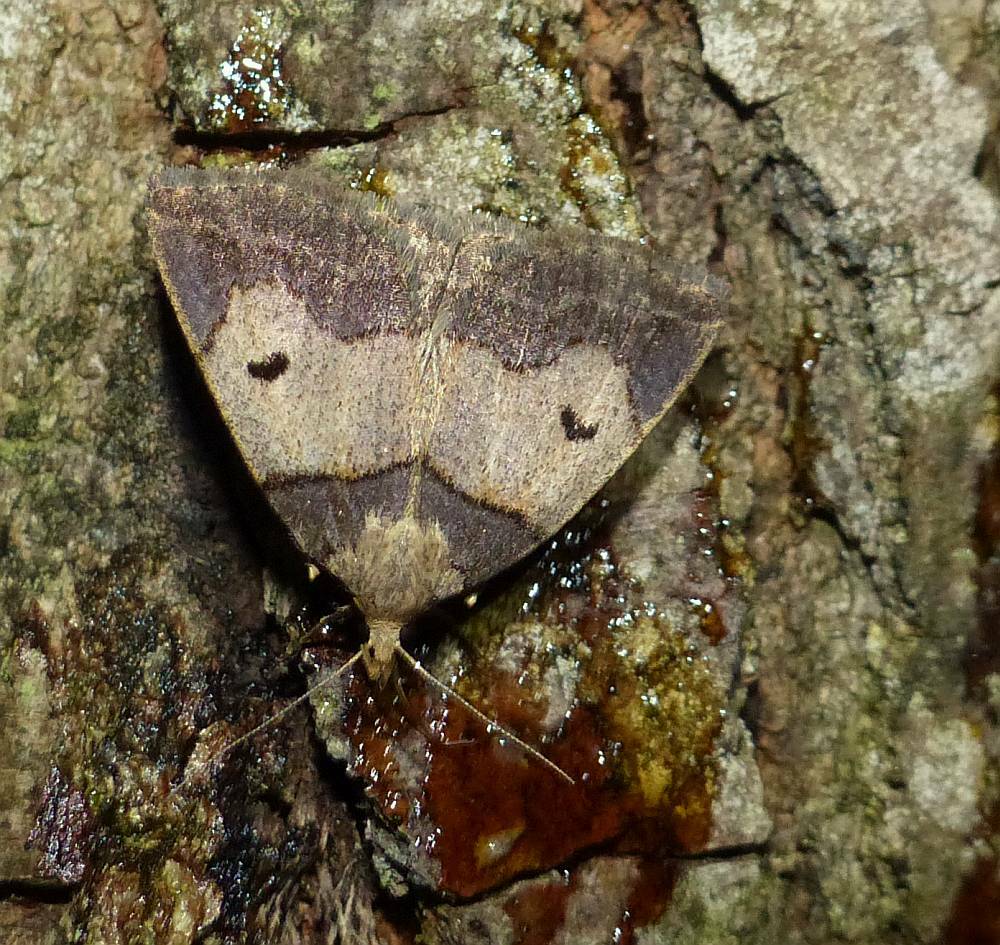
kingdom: Animalia
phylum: Arthropoda
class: Insecta
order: Lepidoptera
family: Erebidae
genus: Zanclognatha
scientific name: Zanclognatha laevigata
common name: Variable fan-foot
